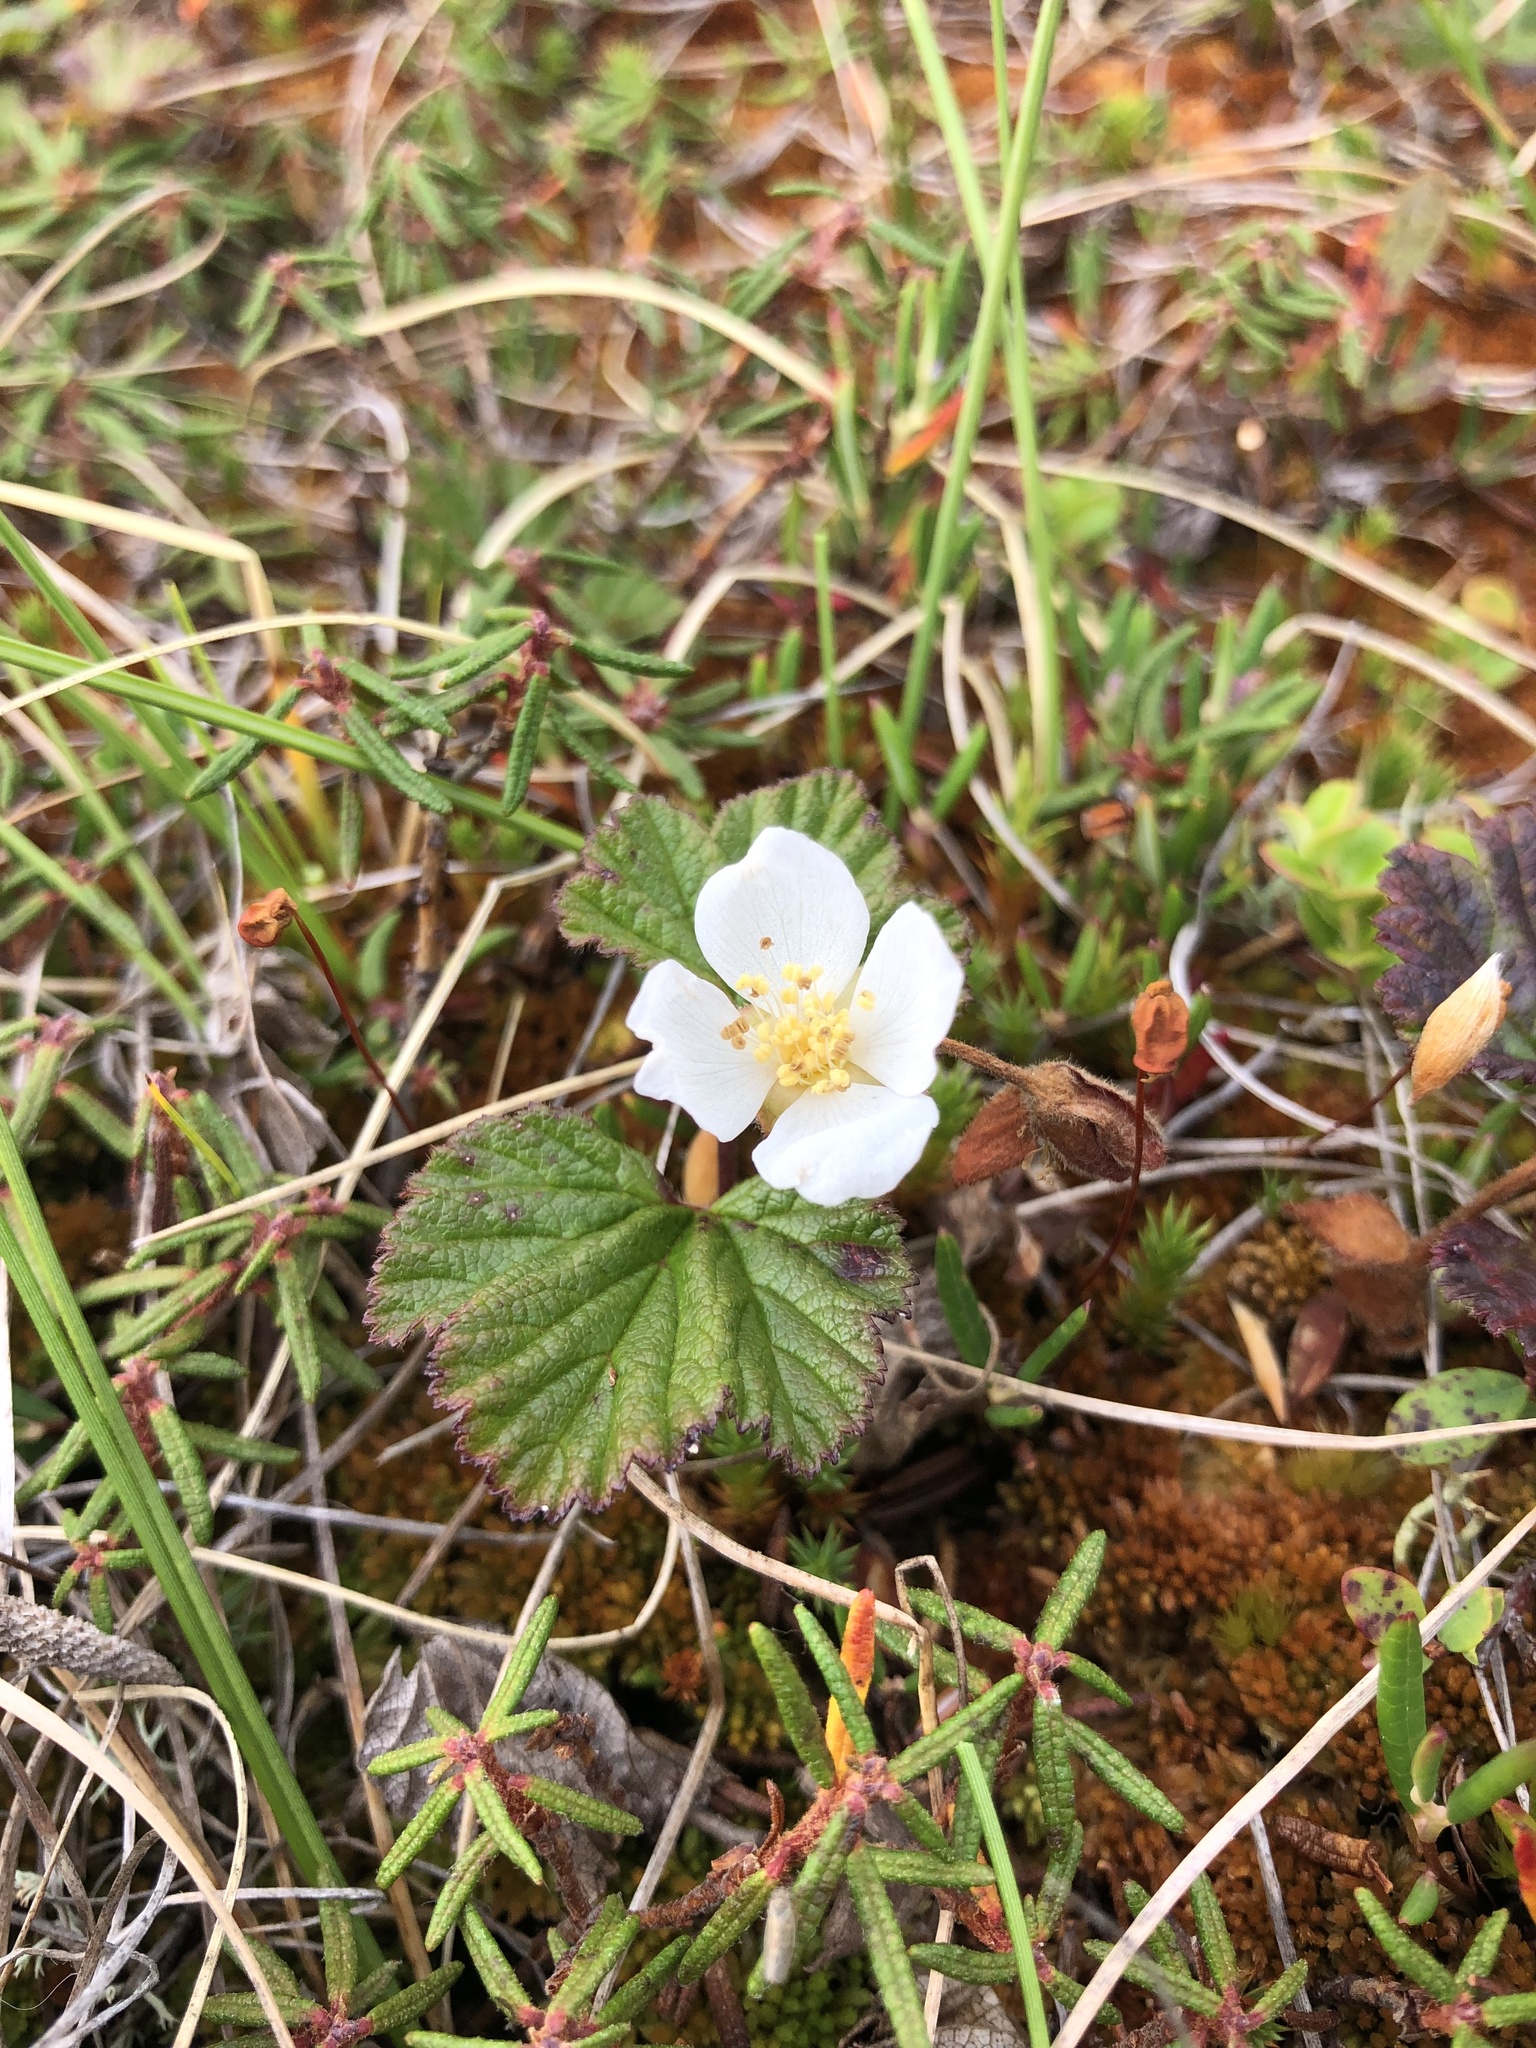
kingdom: Plantae
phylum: Tracheophyta
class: Magnoliopsida
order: Rosales
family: Rosaceae
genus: Rubus
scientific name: Rubus chamaemorus
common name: Cloudberry
